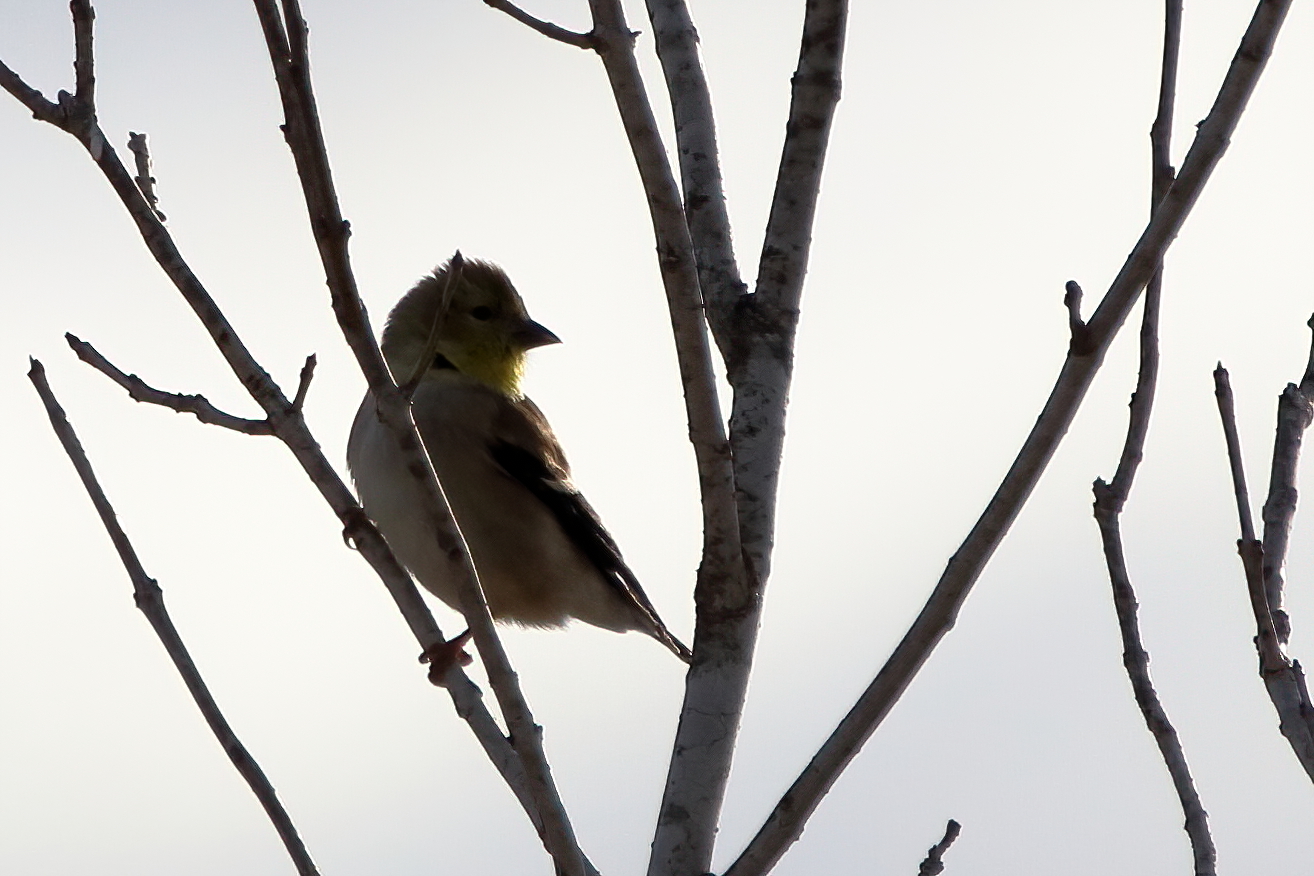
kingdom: Animalia
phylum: Chordata
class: Aves
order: Passeriformes
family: Fringillidae
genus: Spinus
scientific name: Spinus tristis
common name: American goldfinch
